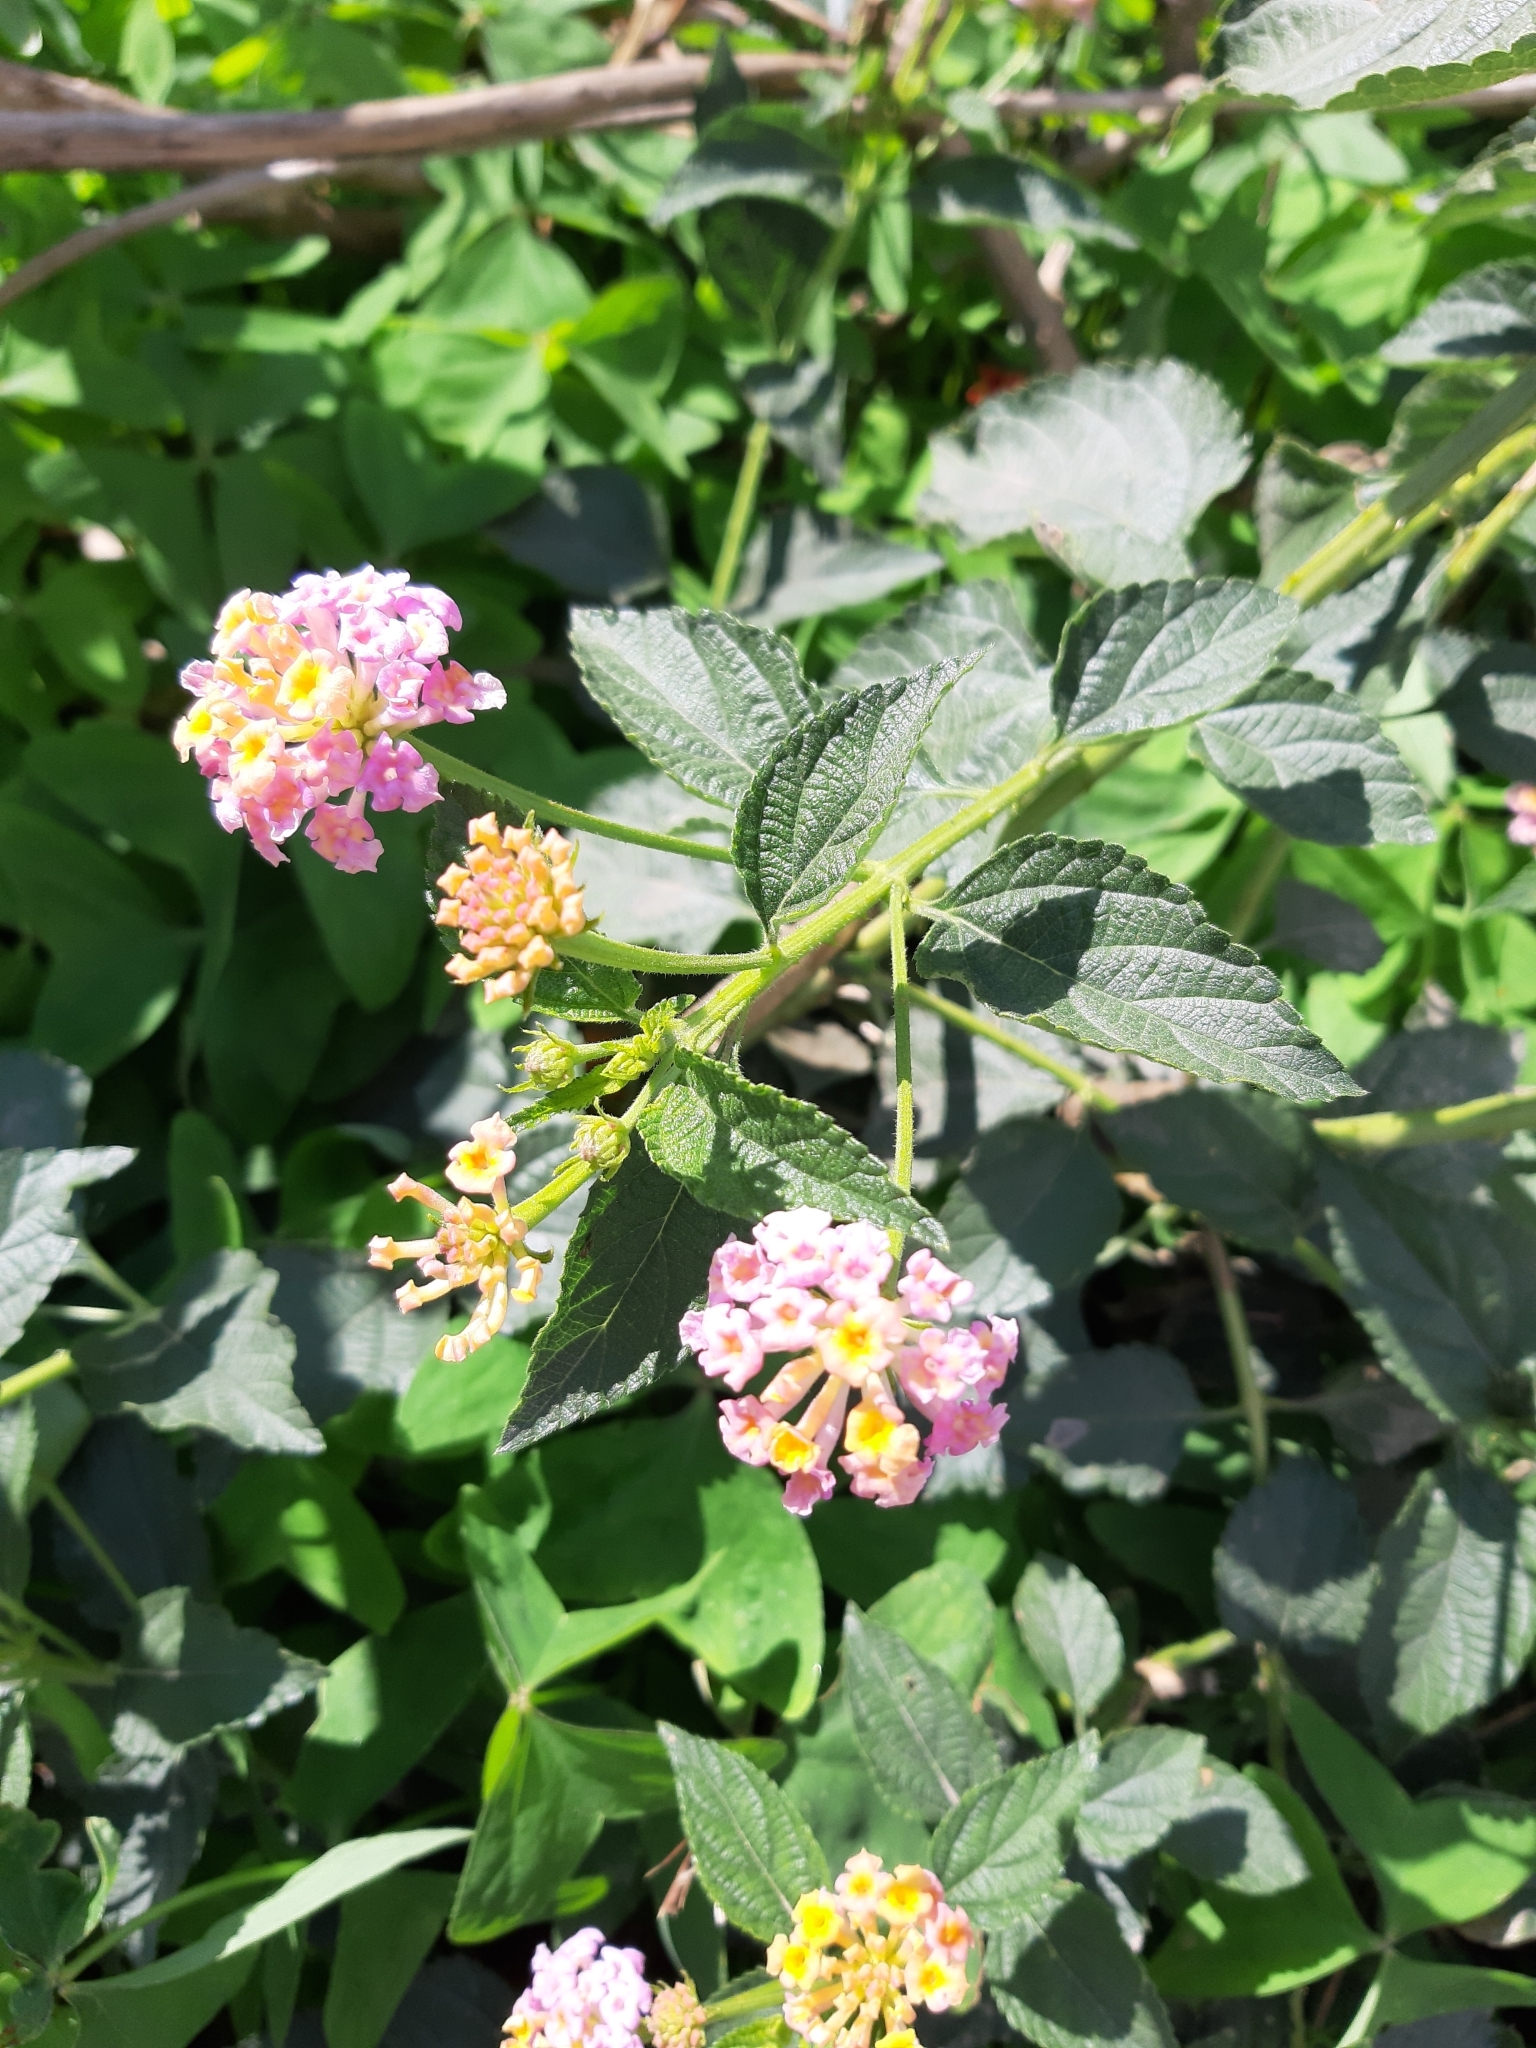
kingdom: Plantae
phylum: Tracheophyta
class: Magnoliopsida
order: Lamiales
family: Verbenaceae
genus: Lantana
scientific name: Lantana camara
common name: Lantana
